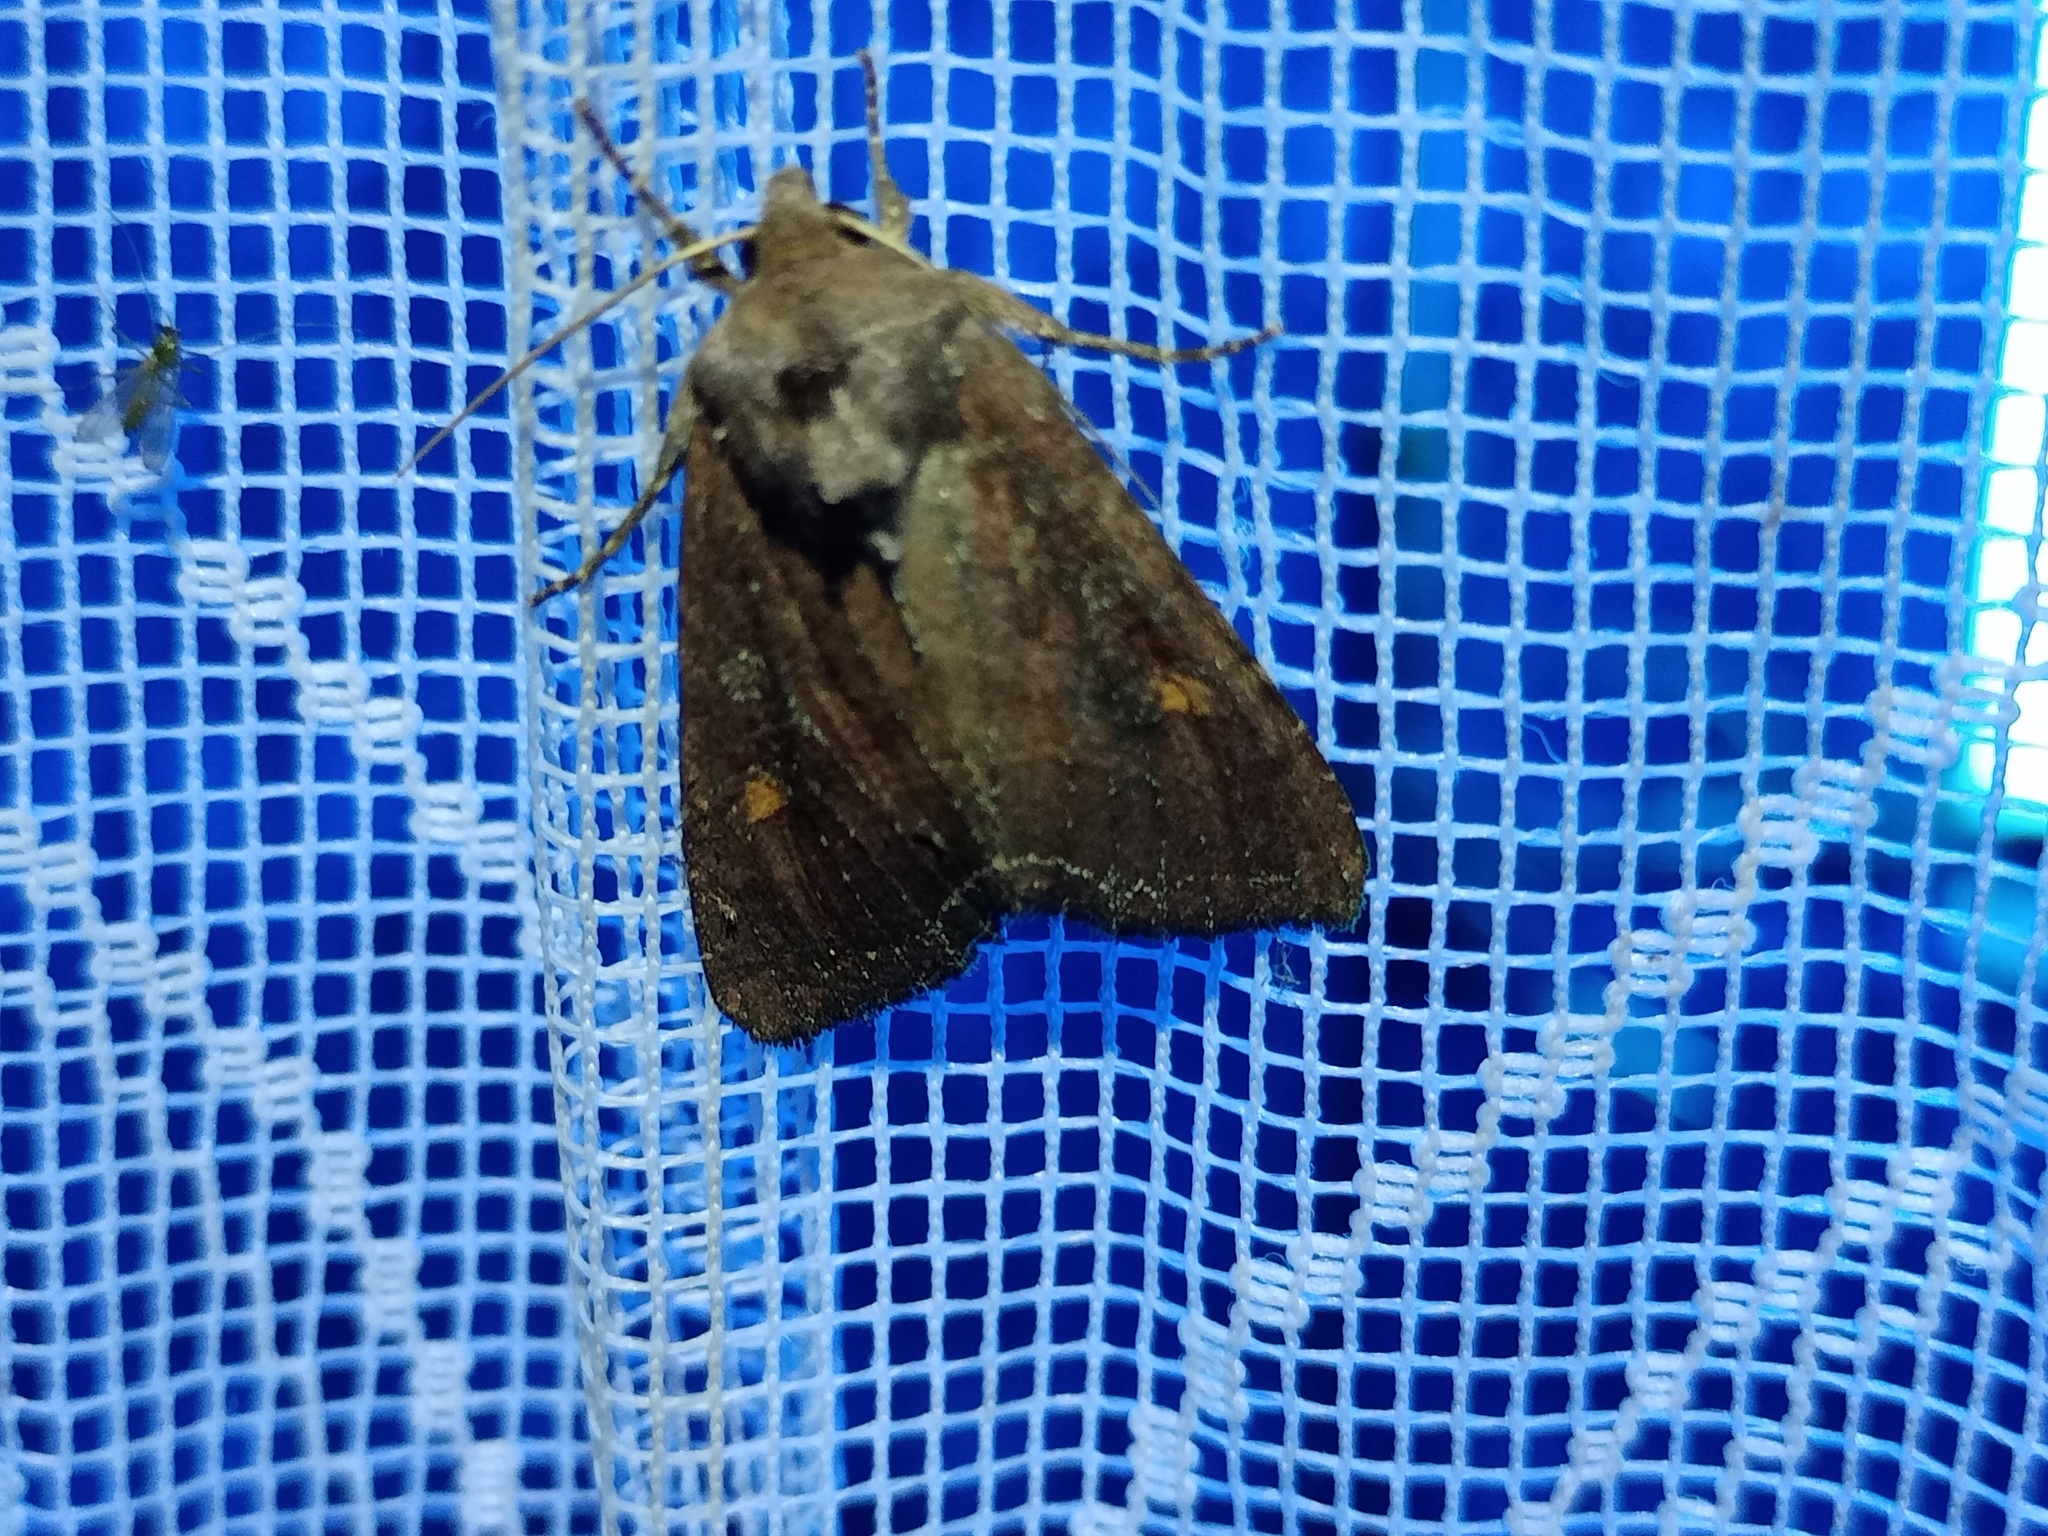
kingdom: Animalia
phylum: Arthropoda
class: Insecta
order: Lepidoptera
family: Noctuidae
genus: Lacanobia
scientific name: Lacanobia oleracea
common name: Bright-line brown-eye
